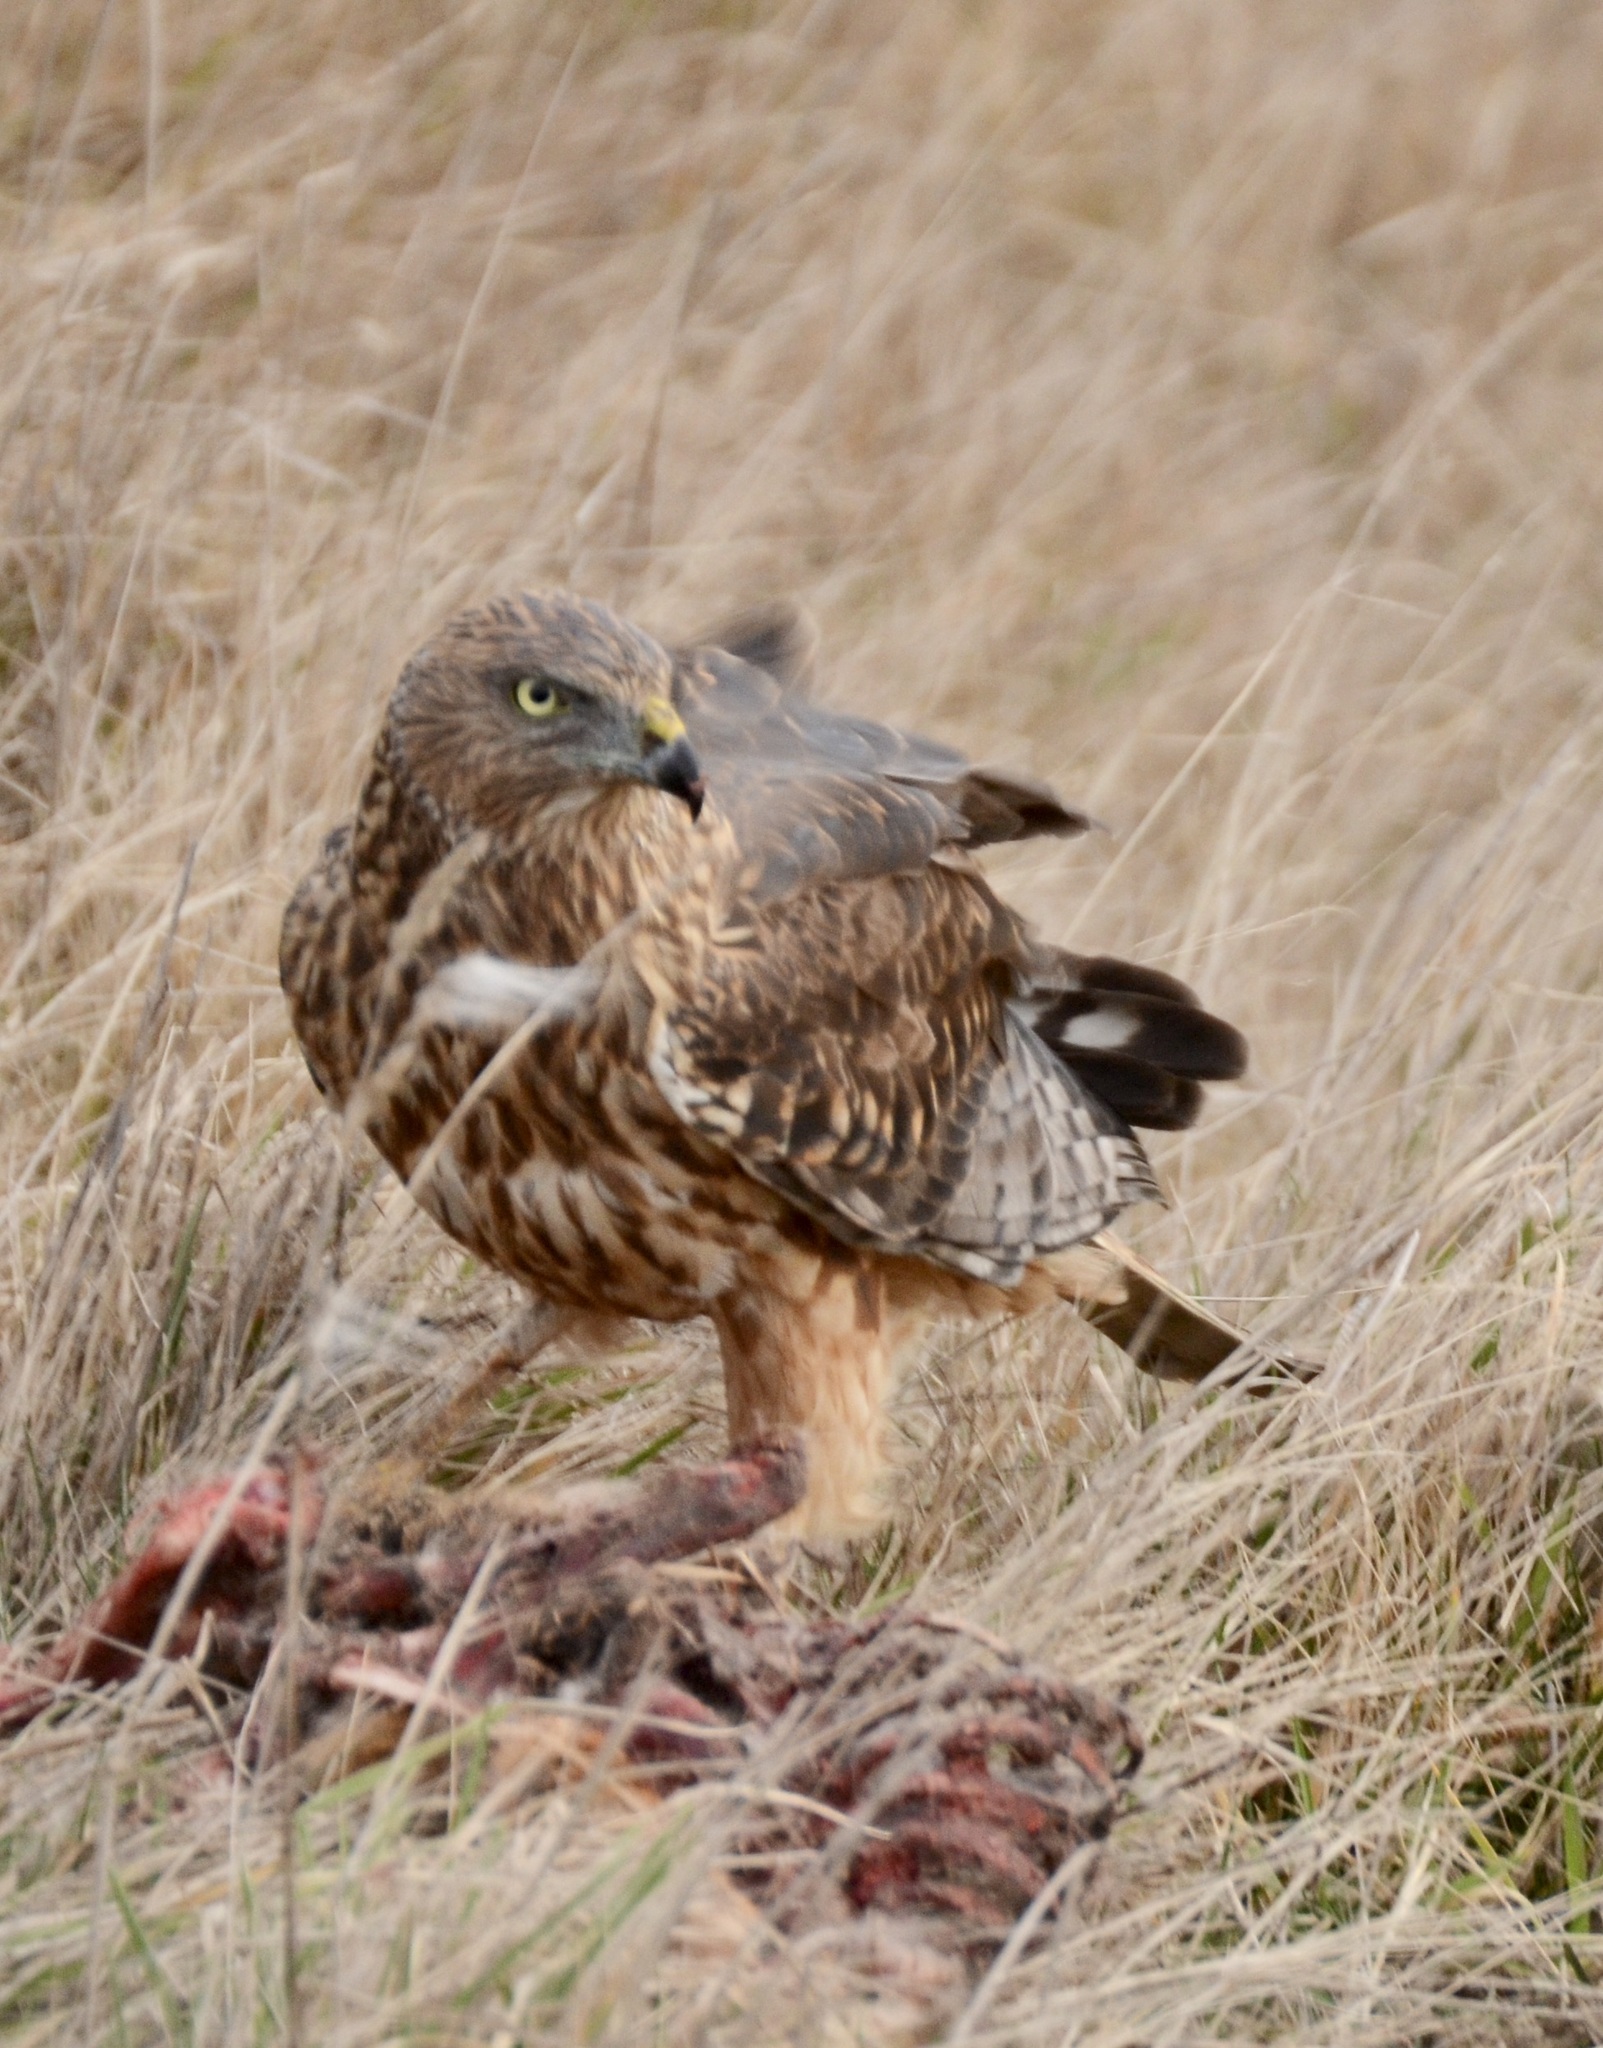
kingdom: Animalia
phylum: Chordata
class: Aves
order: Accipitriformes
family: Accipitridae
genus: Circus
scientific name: Circus approximans
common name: Swamp harrier
